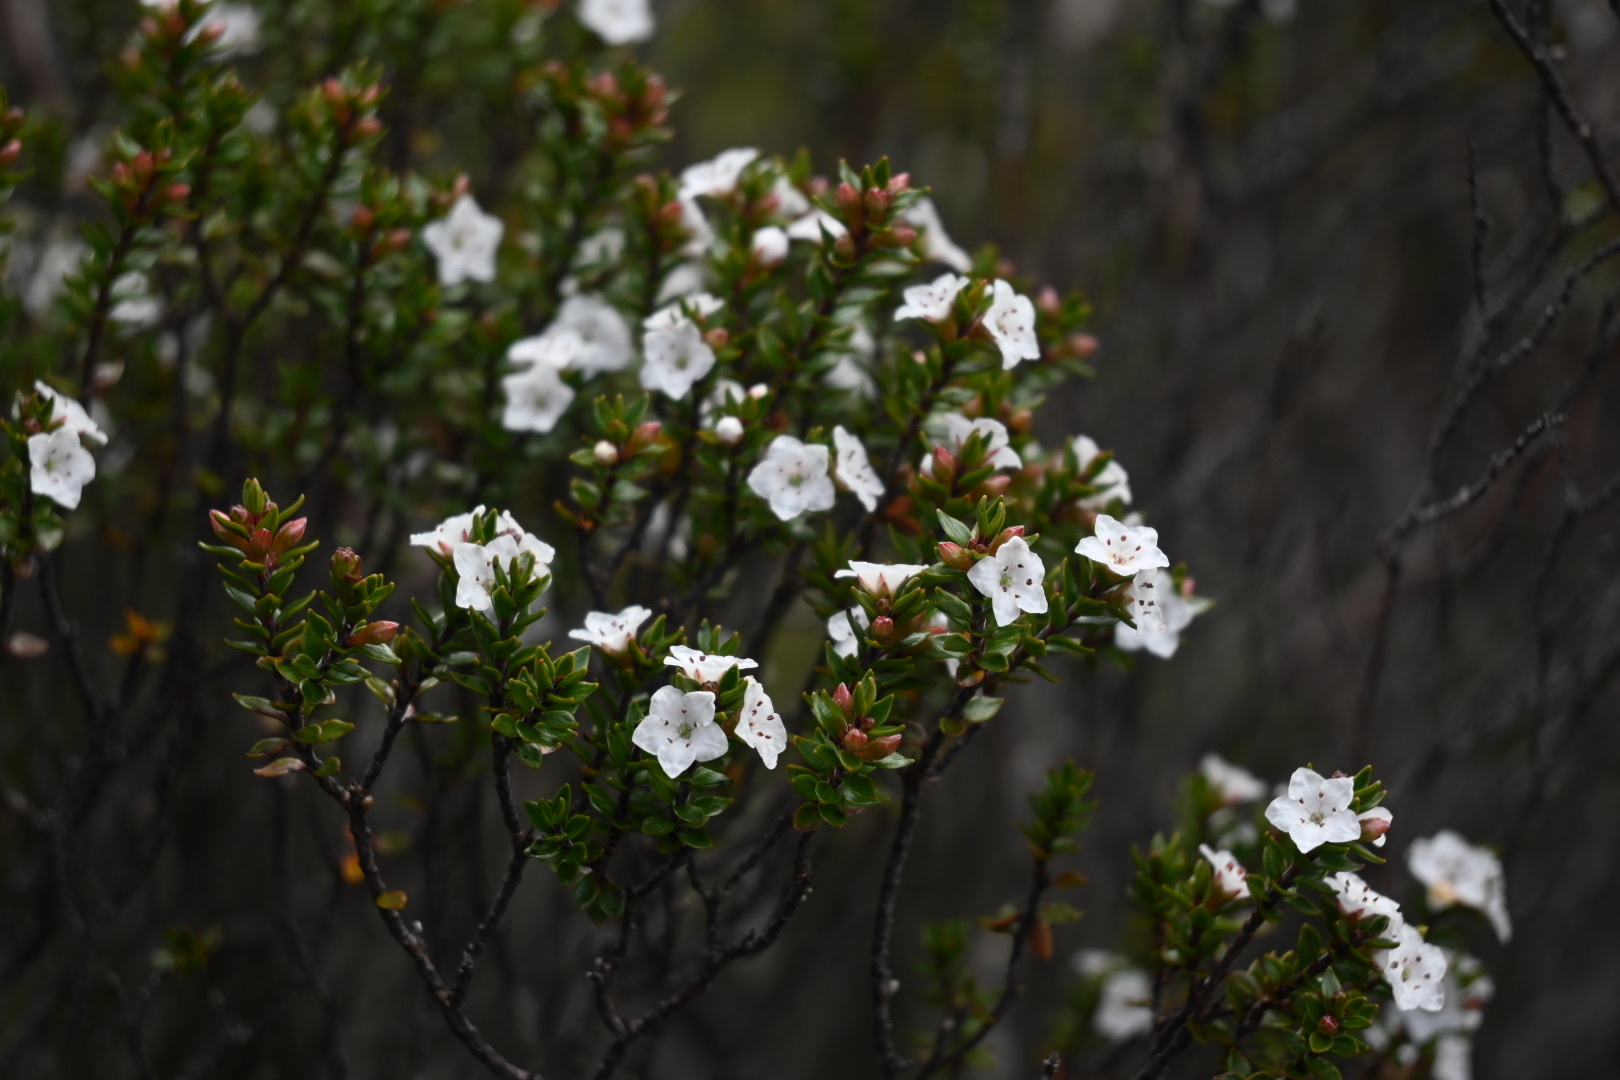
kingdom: Plantae
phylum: Tracheophyta
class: Magnoliopsida
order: Ericales
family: Ericaceae
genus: Epacris
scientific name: Epacris pauciflora
